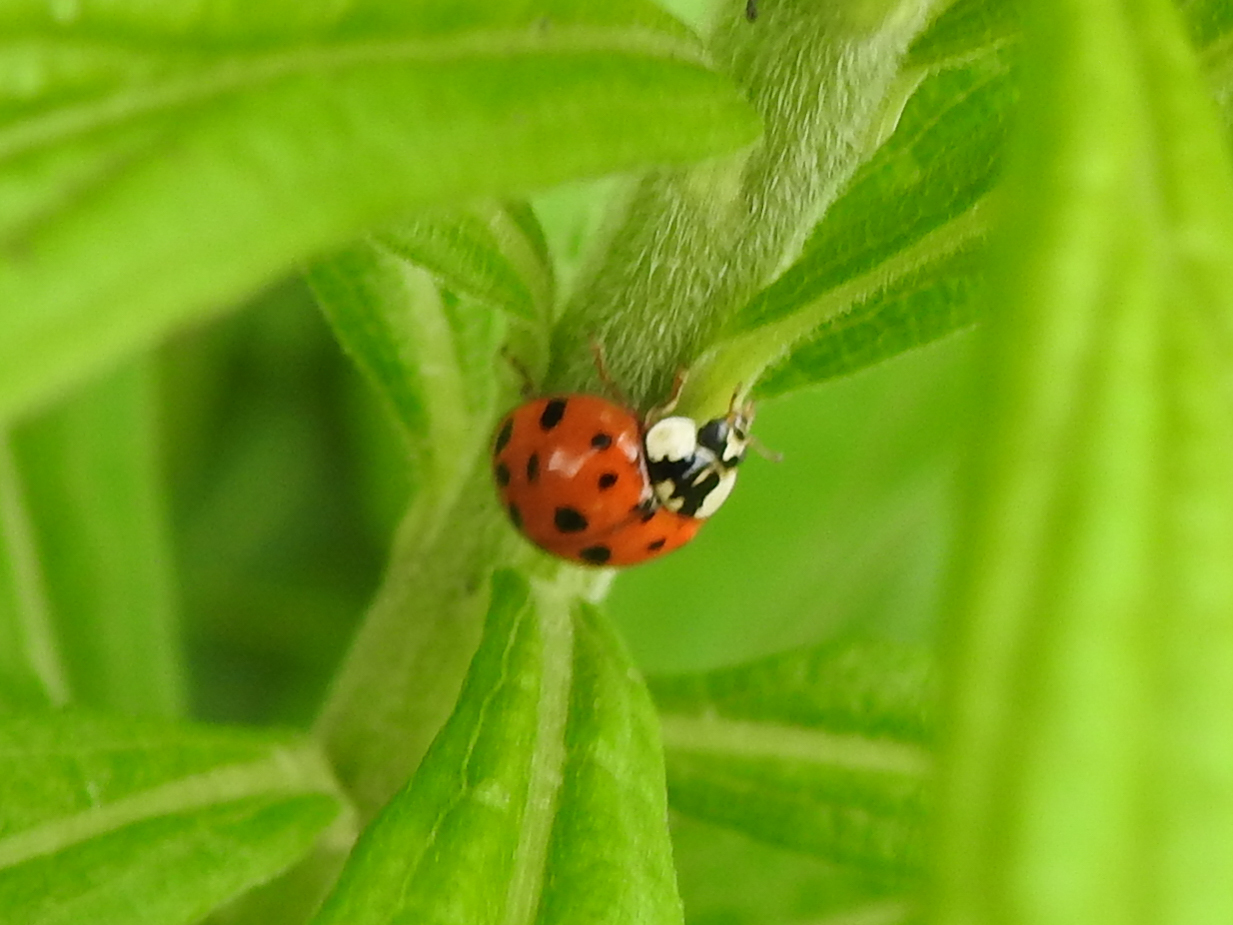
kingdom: Animalia
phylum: Arthropoda
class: Insecta
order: Coleoptera
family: Coccinellidae
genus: Harmonia
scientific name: Harmonia axyridis
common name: Harlequin ladybird
